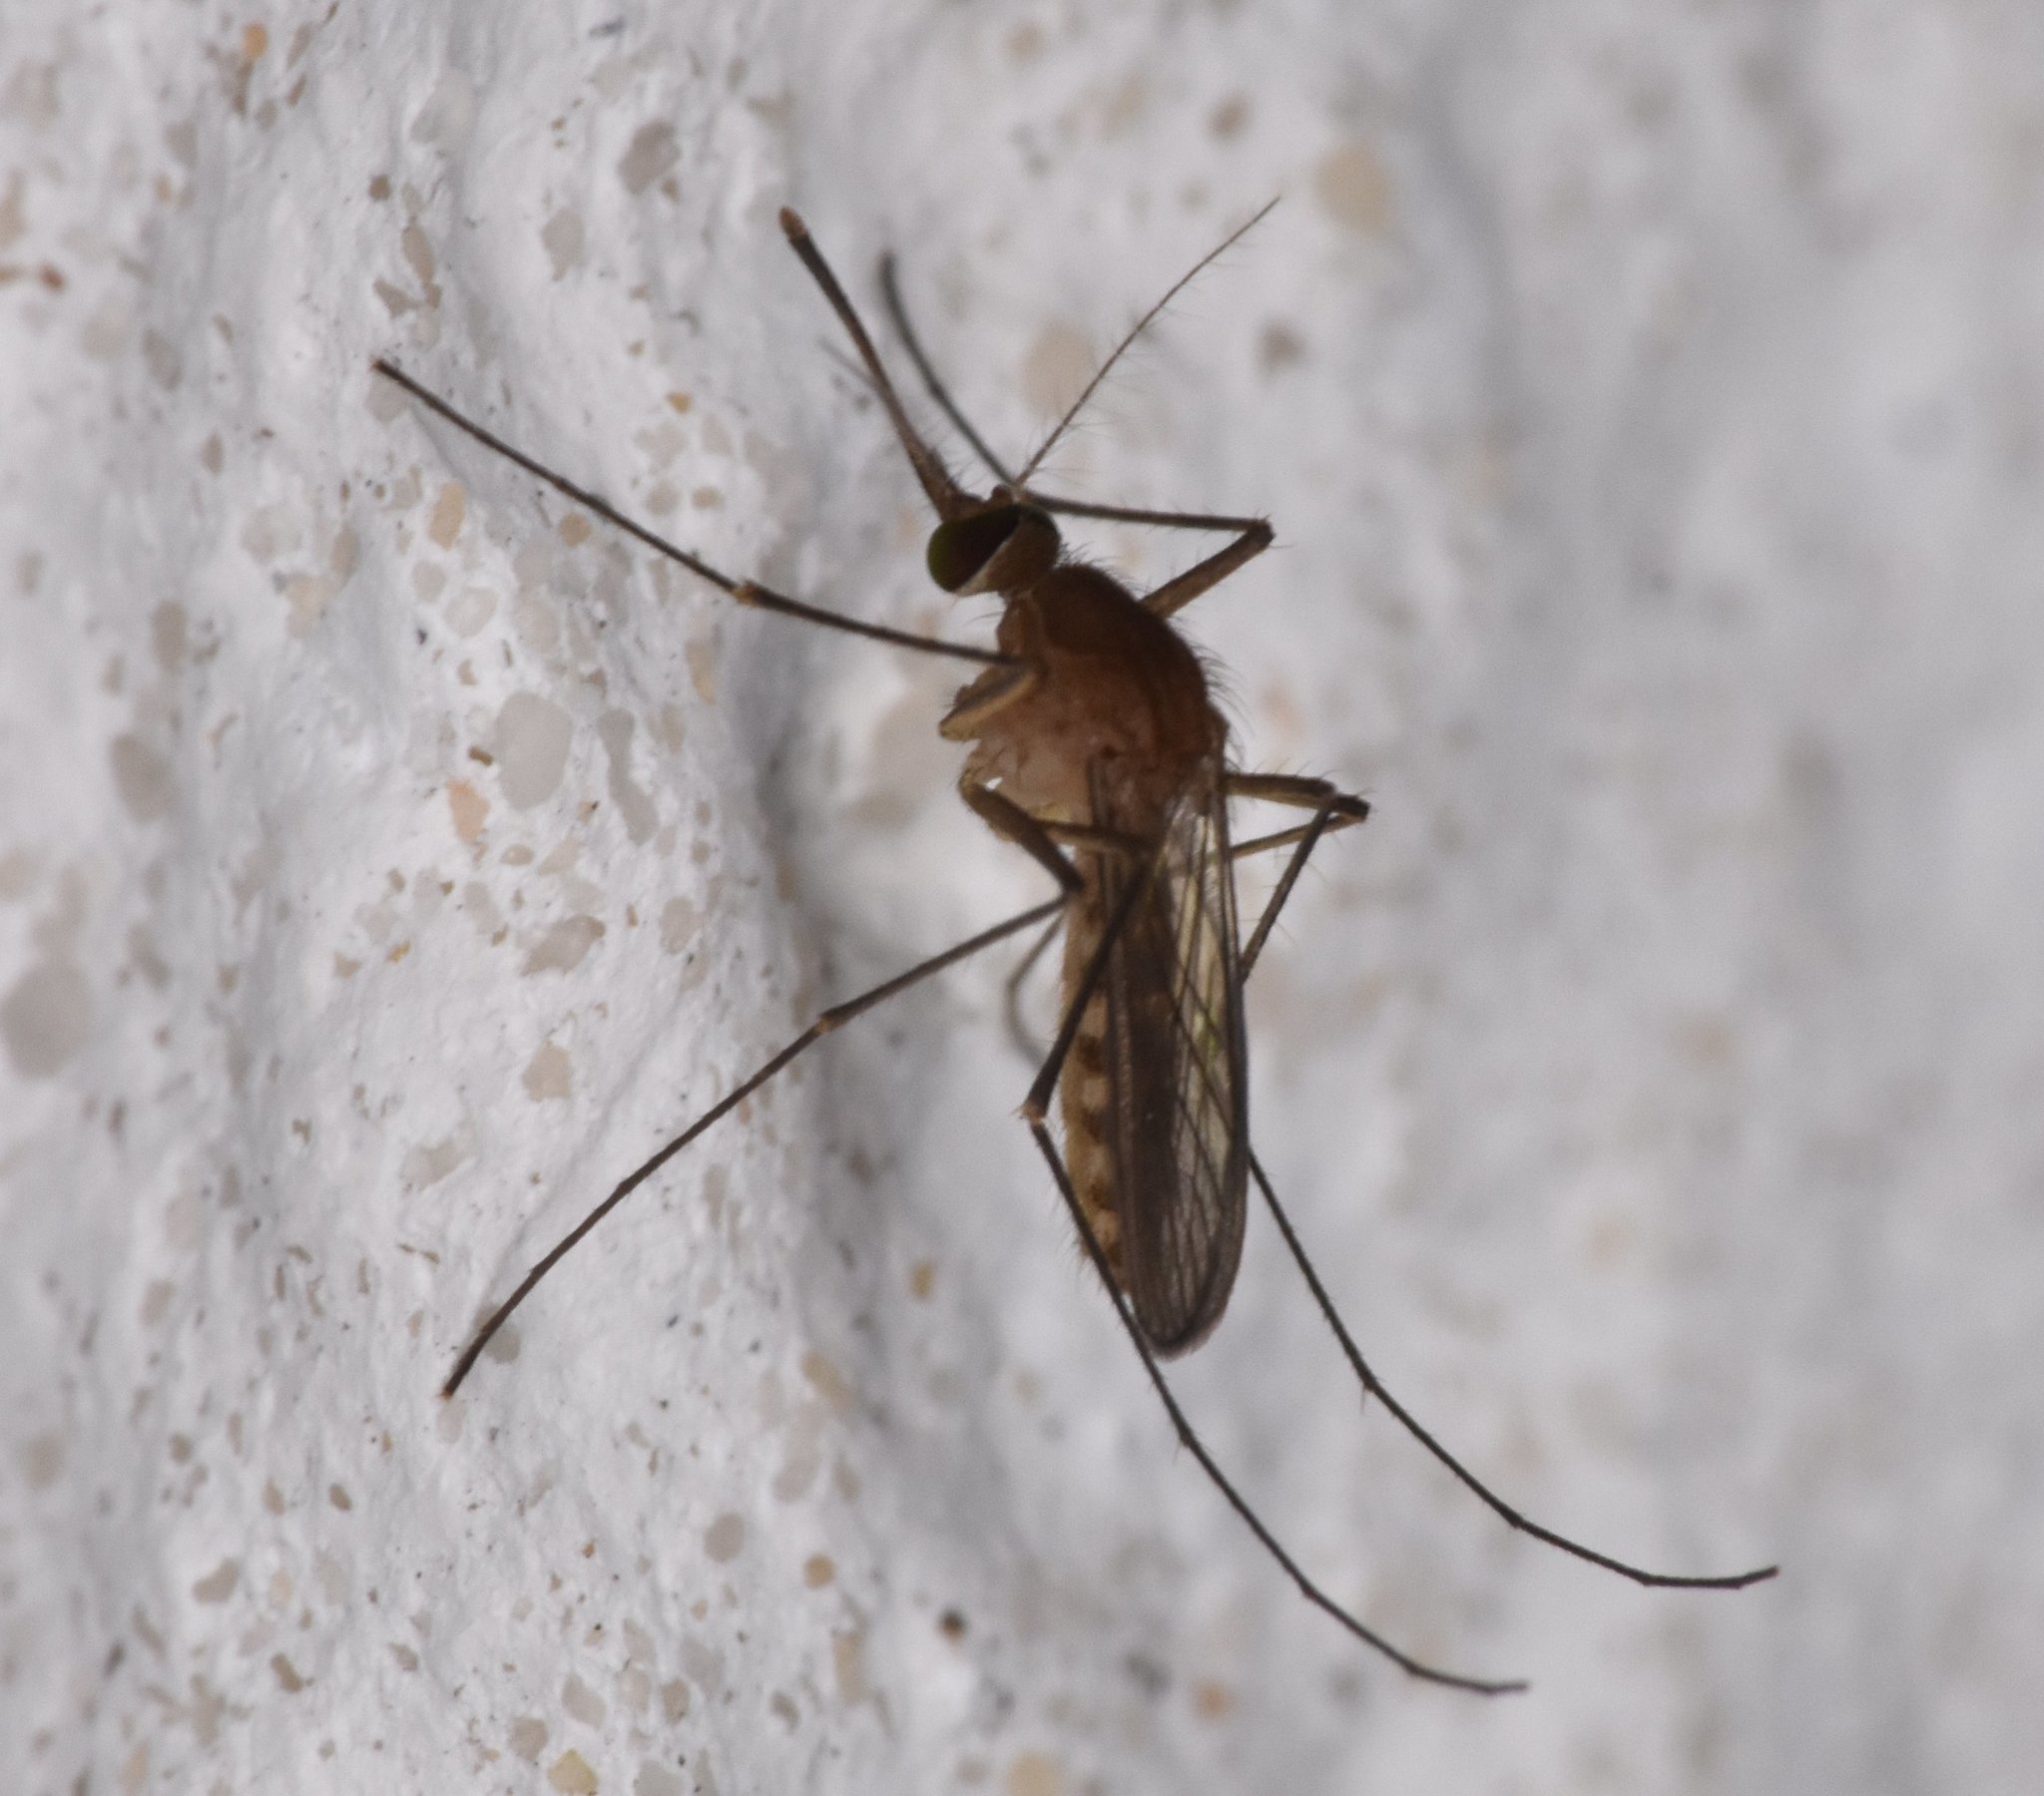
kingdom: Animalia
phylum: Arthropoda
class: Insecta
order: Diptera
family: Culicidae
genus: Culex
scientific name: Culex nigripalpus
